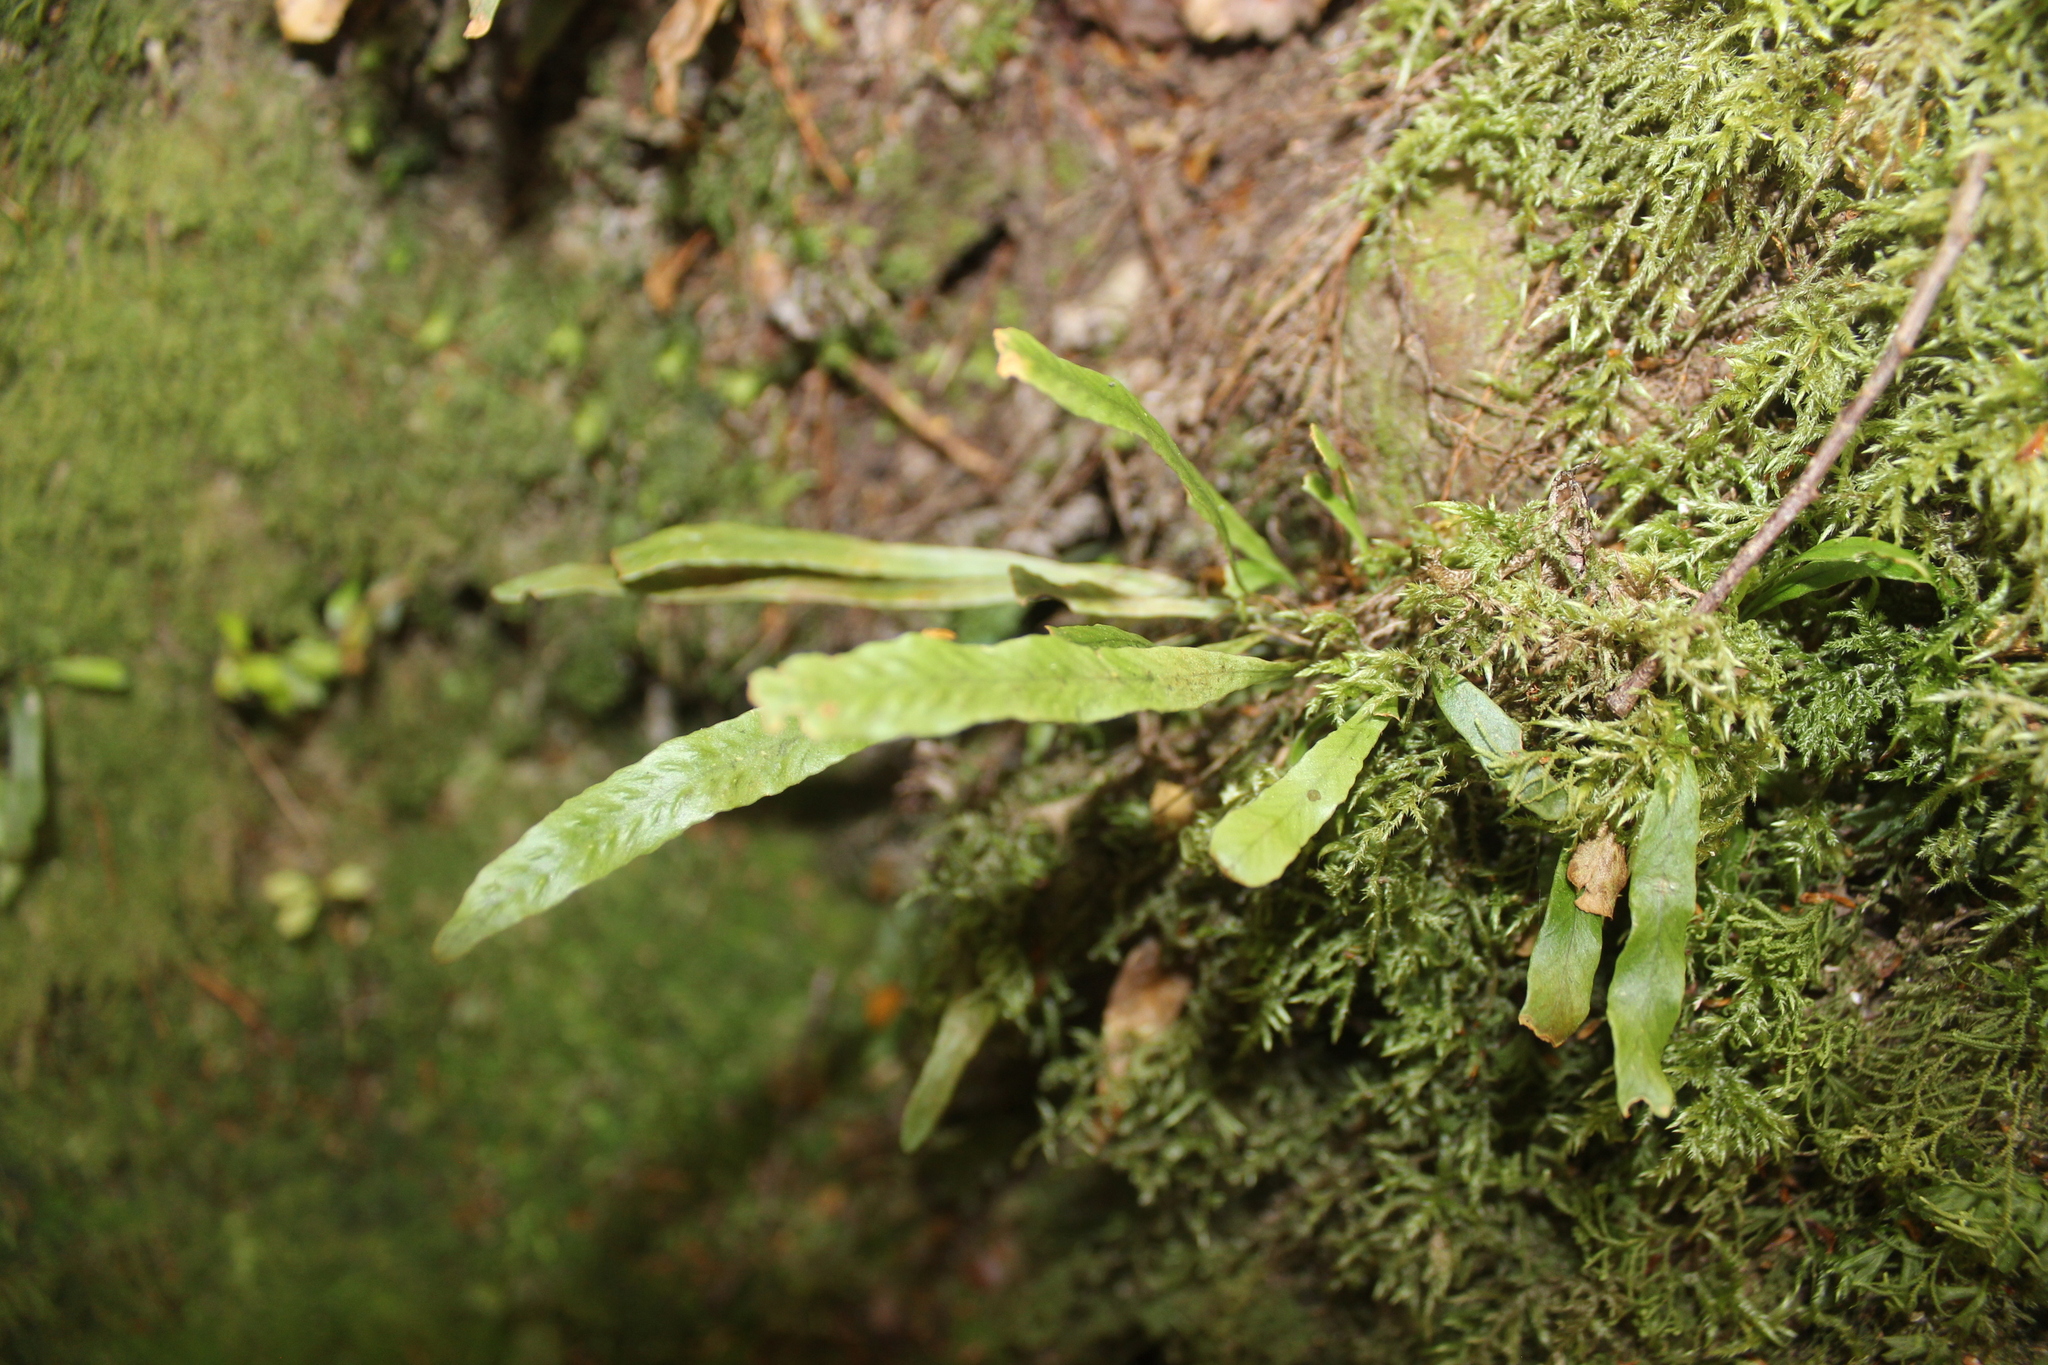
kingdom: Plantae
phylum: Tracheophyta
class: Polypodiopsida
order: Polypodiales
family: Polypodiaceae
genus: Notogrammitis
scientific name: Notogrammitis billardierei
